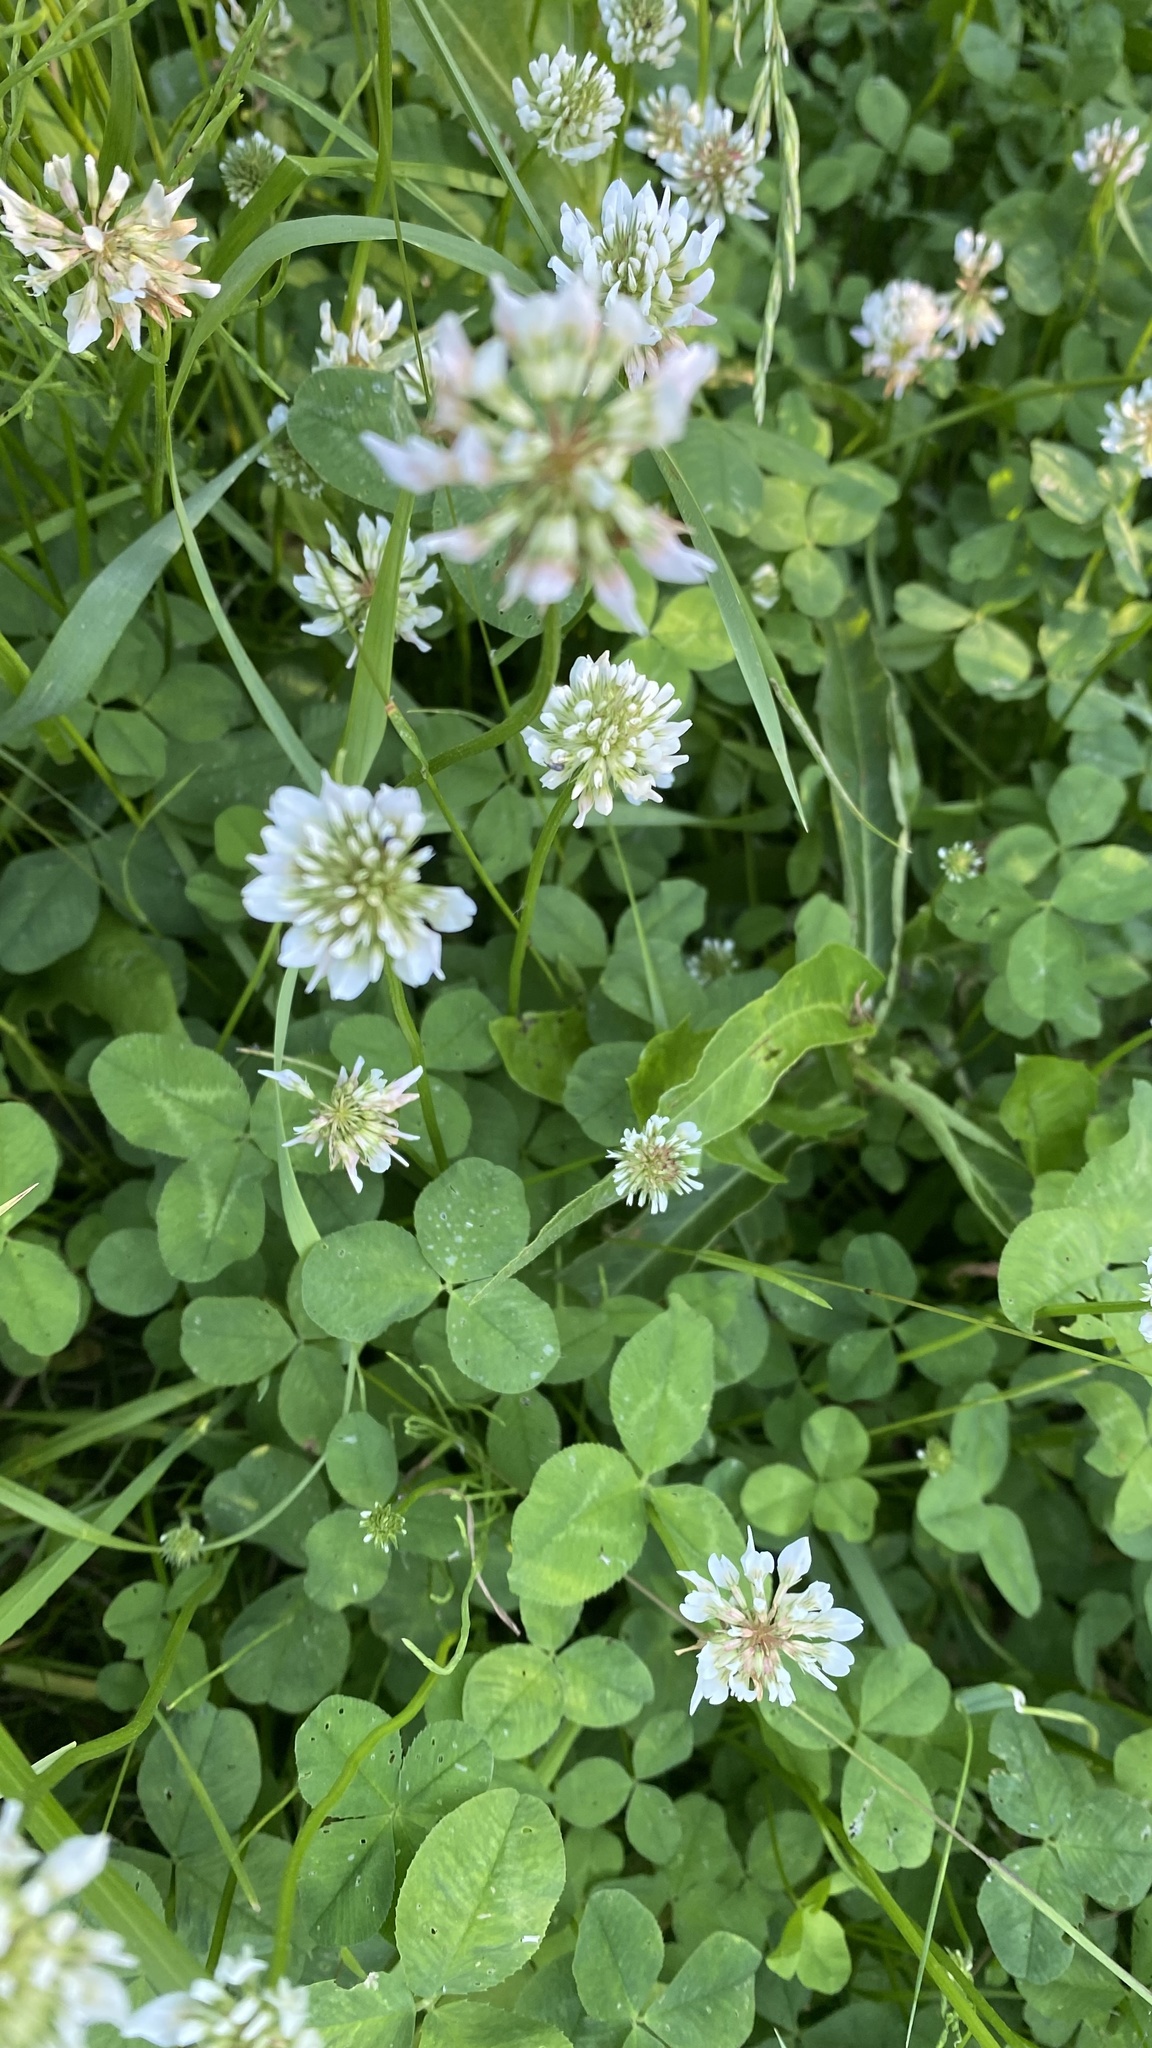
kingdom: Plantae
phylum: Tracheophyta
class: Magnoliopsida
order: Fabales
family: Fabaceae
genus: Trifolium
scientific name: Trifolium repens
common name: White clover
